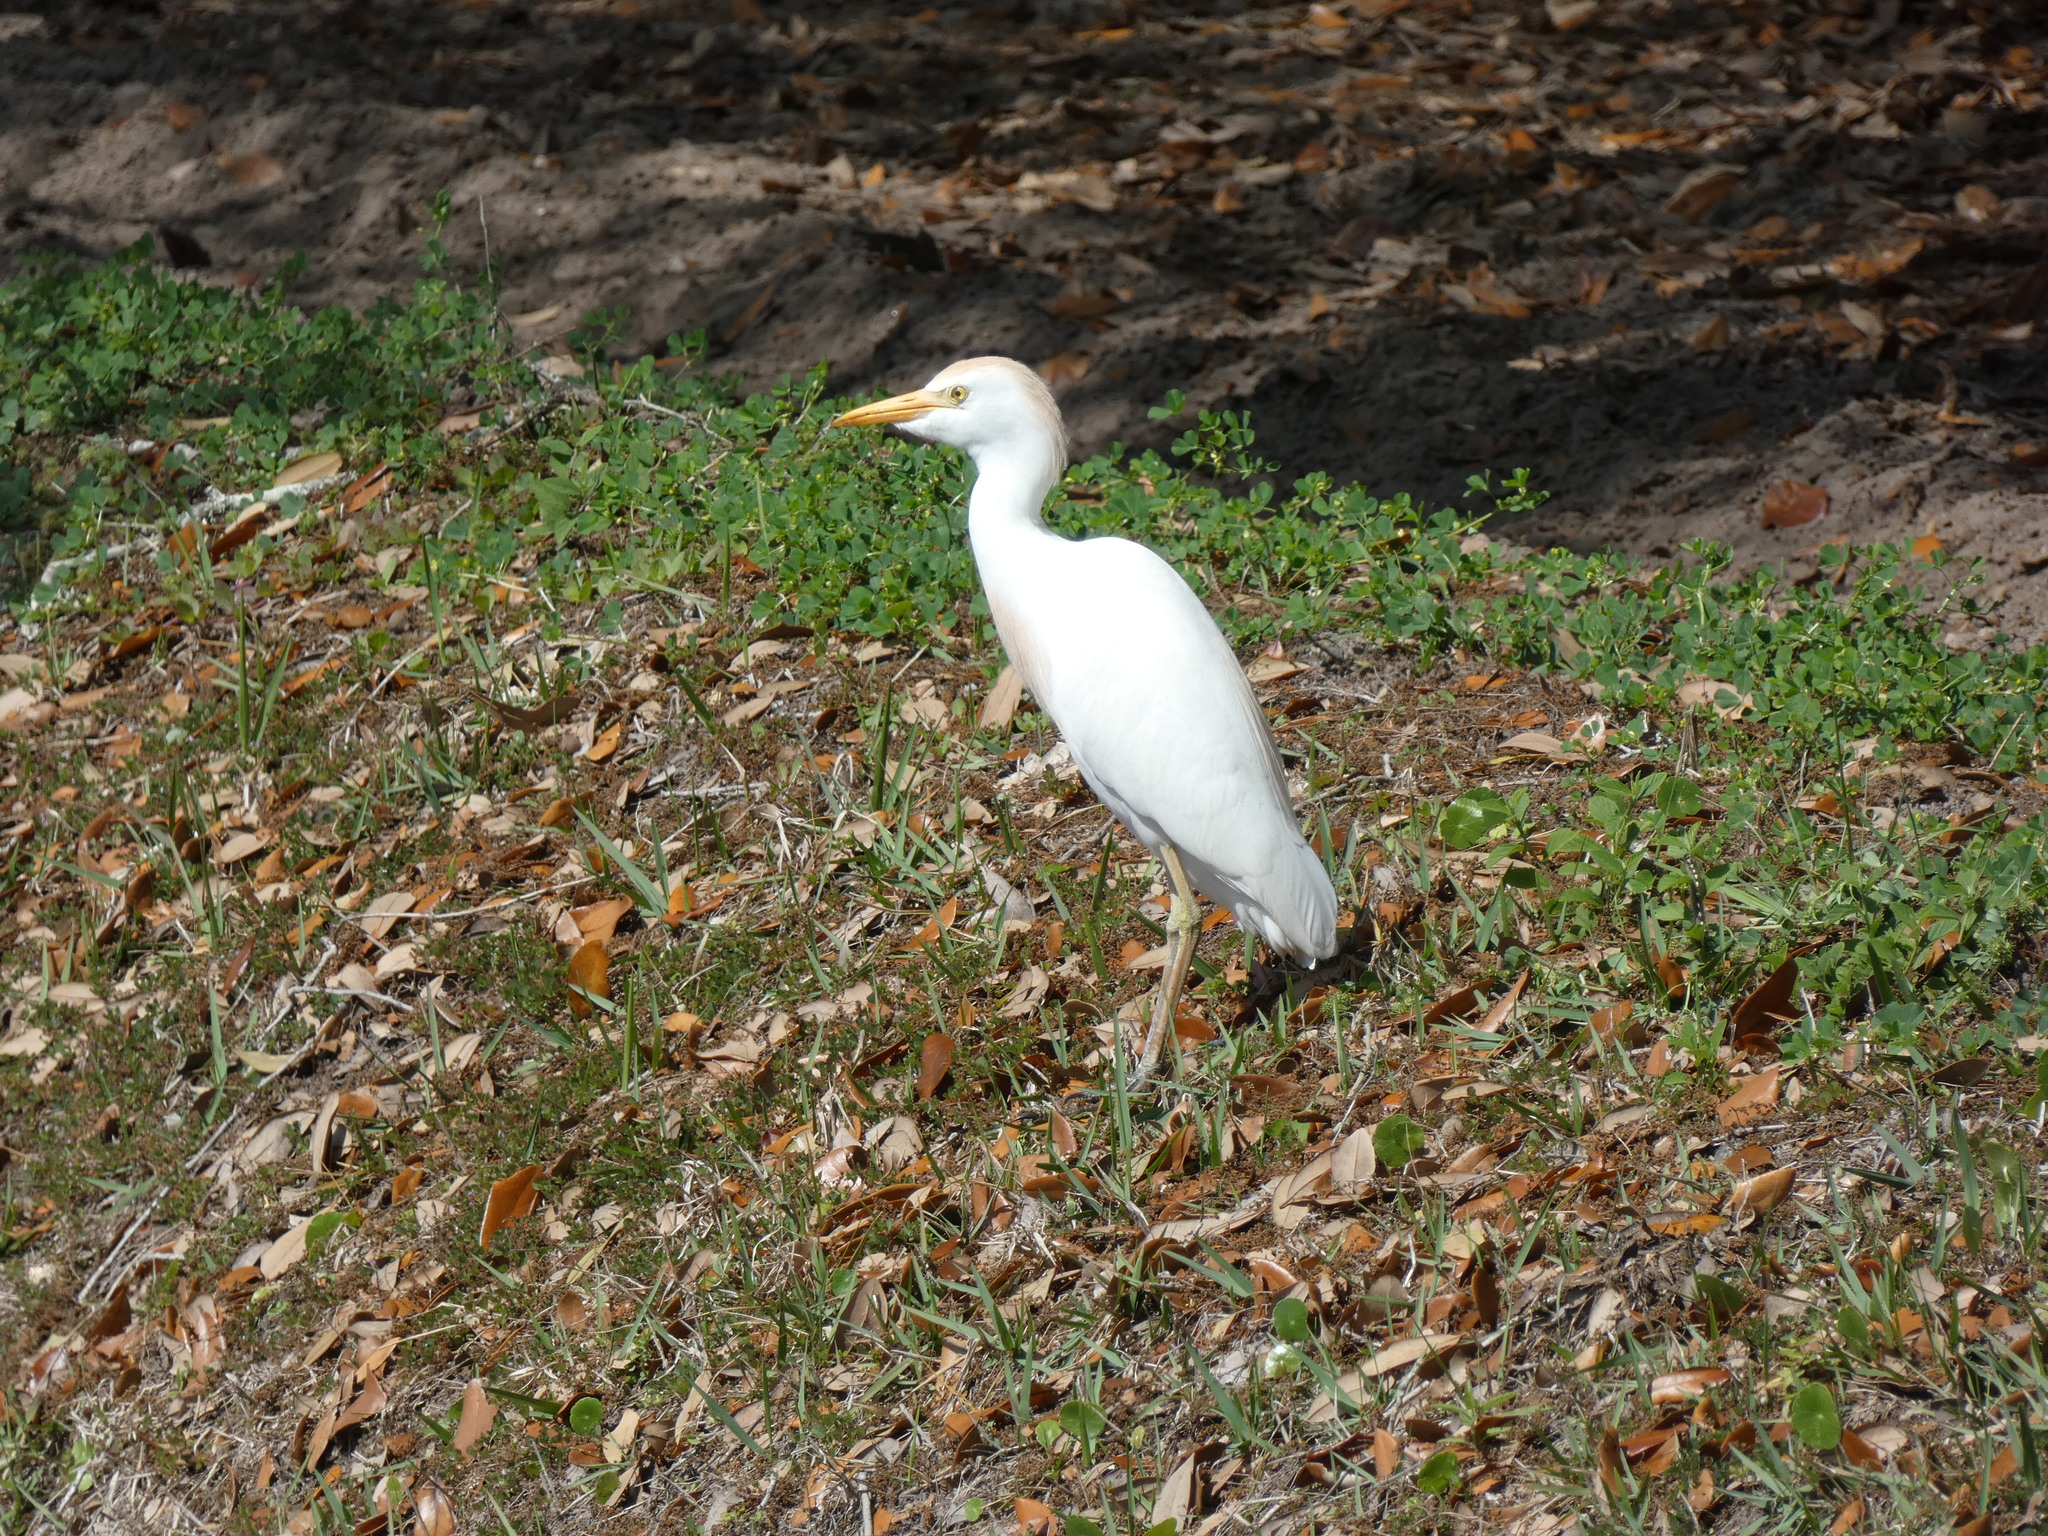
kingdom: Animalia
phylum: Chordata
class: Aves
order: Pelecaniformes
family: Ardeidae
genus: Bubulcus
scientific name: Bubulcus ibis
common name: Cattle egret
